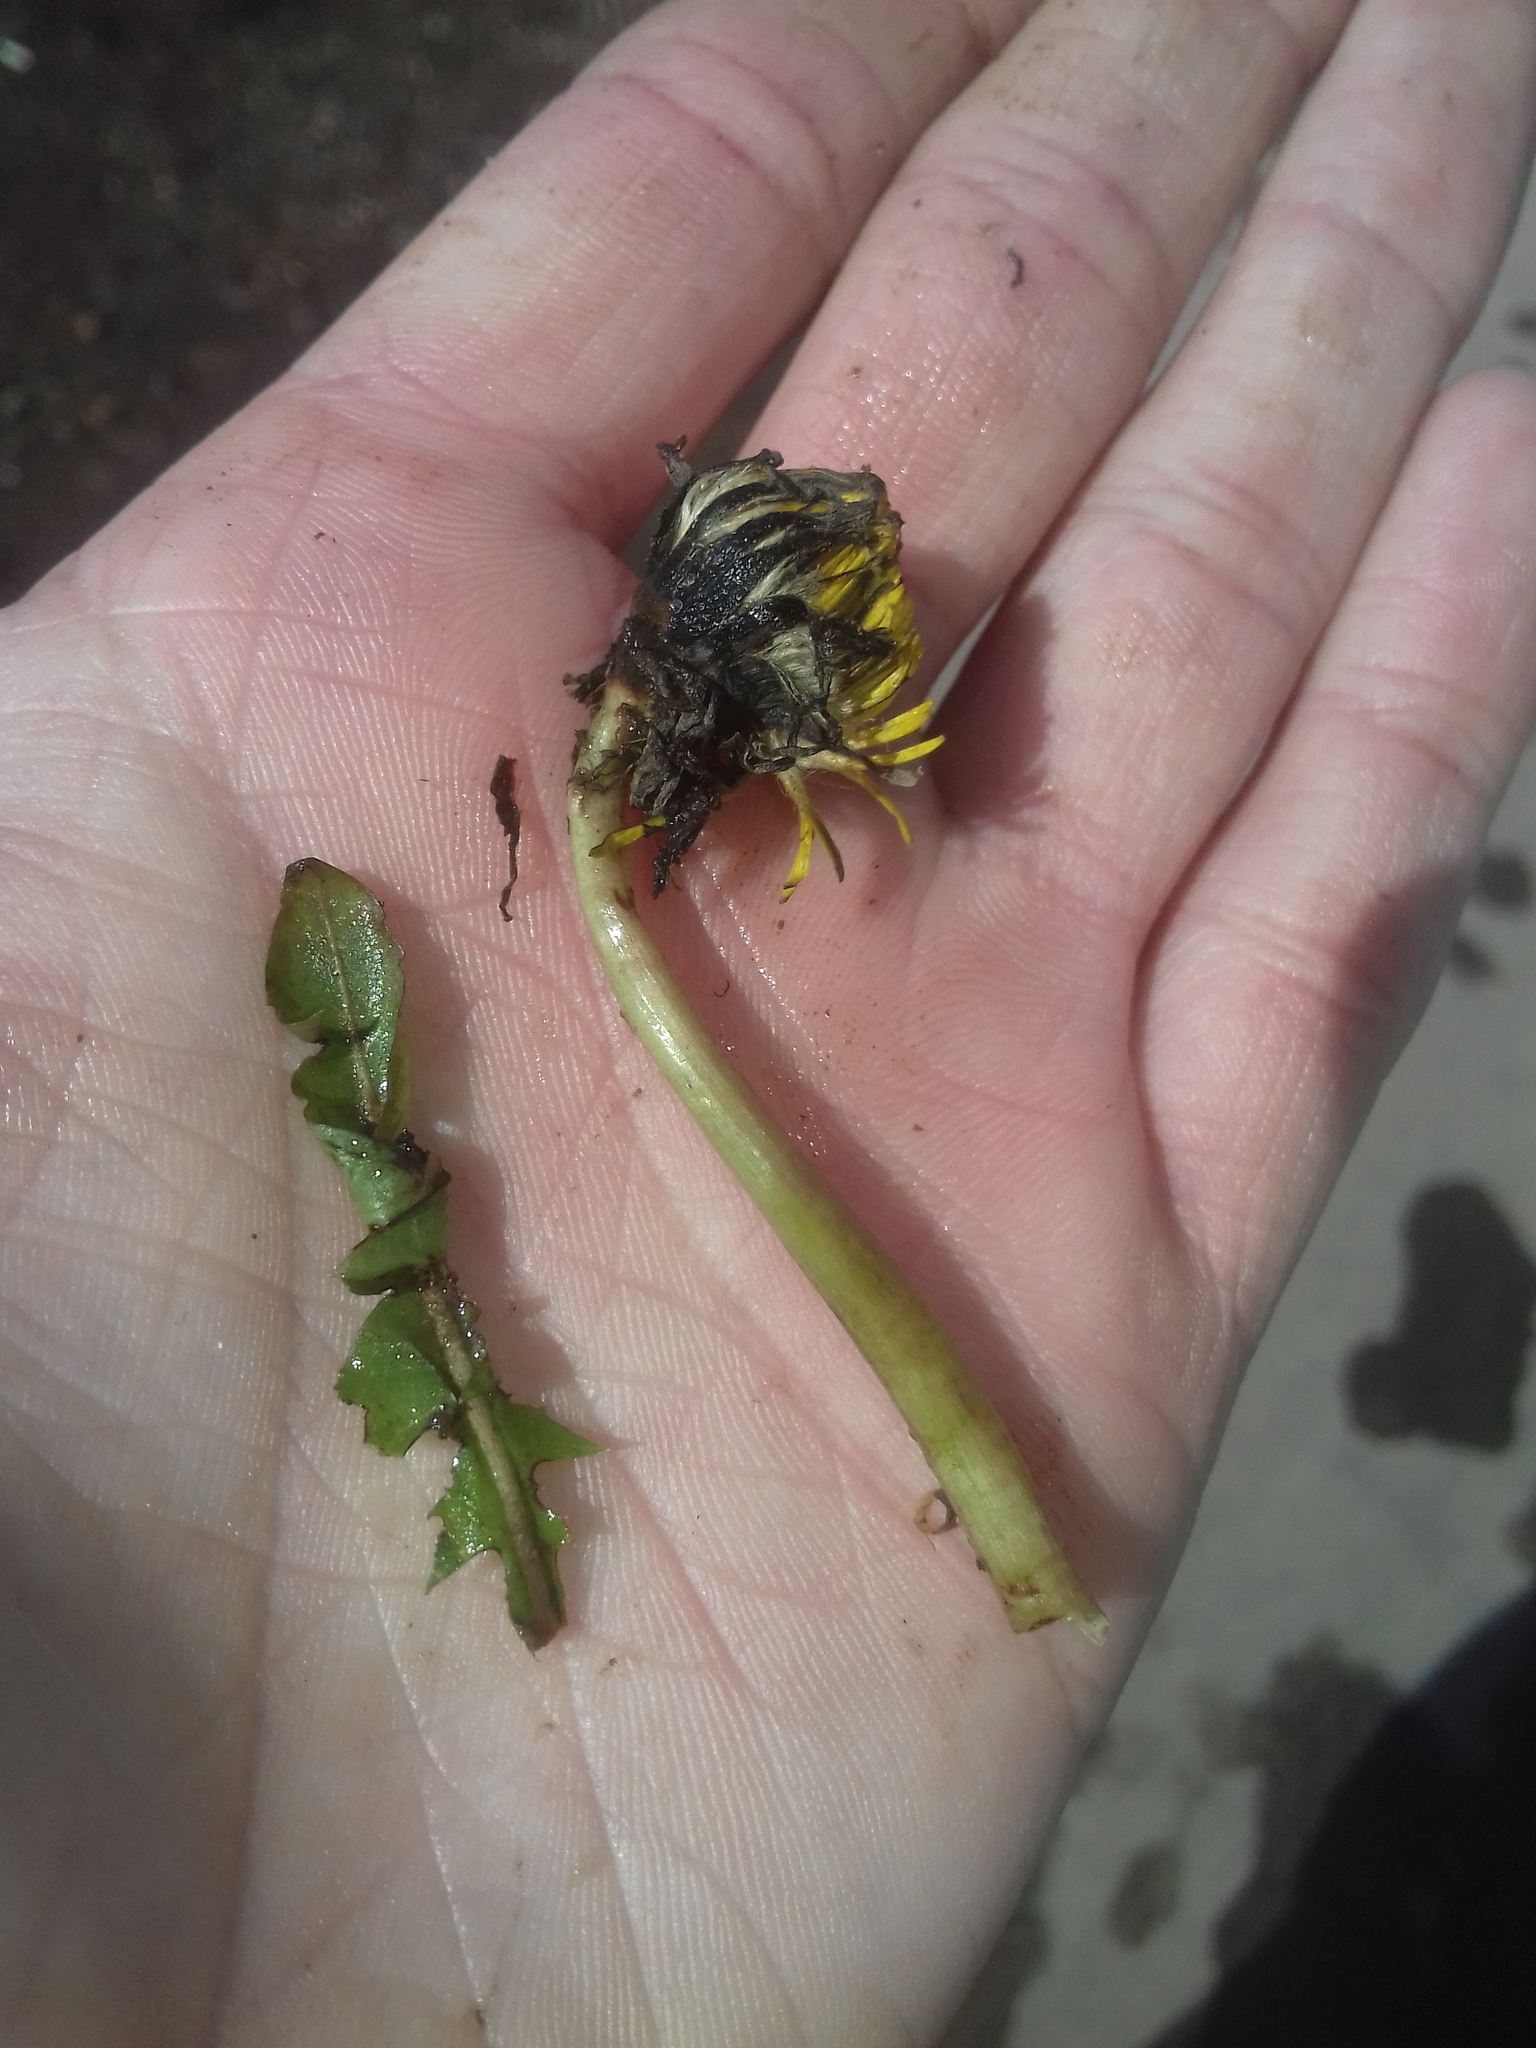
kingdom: Plantae
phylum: Tracheophyta
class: Magnoliopsida
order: Asterales
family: Asteraceae
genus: Taraxacum
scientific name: Taraxacum officinale
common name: Common dandelion
